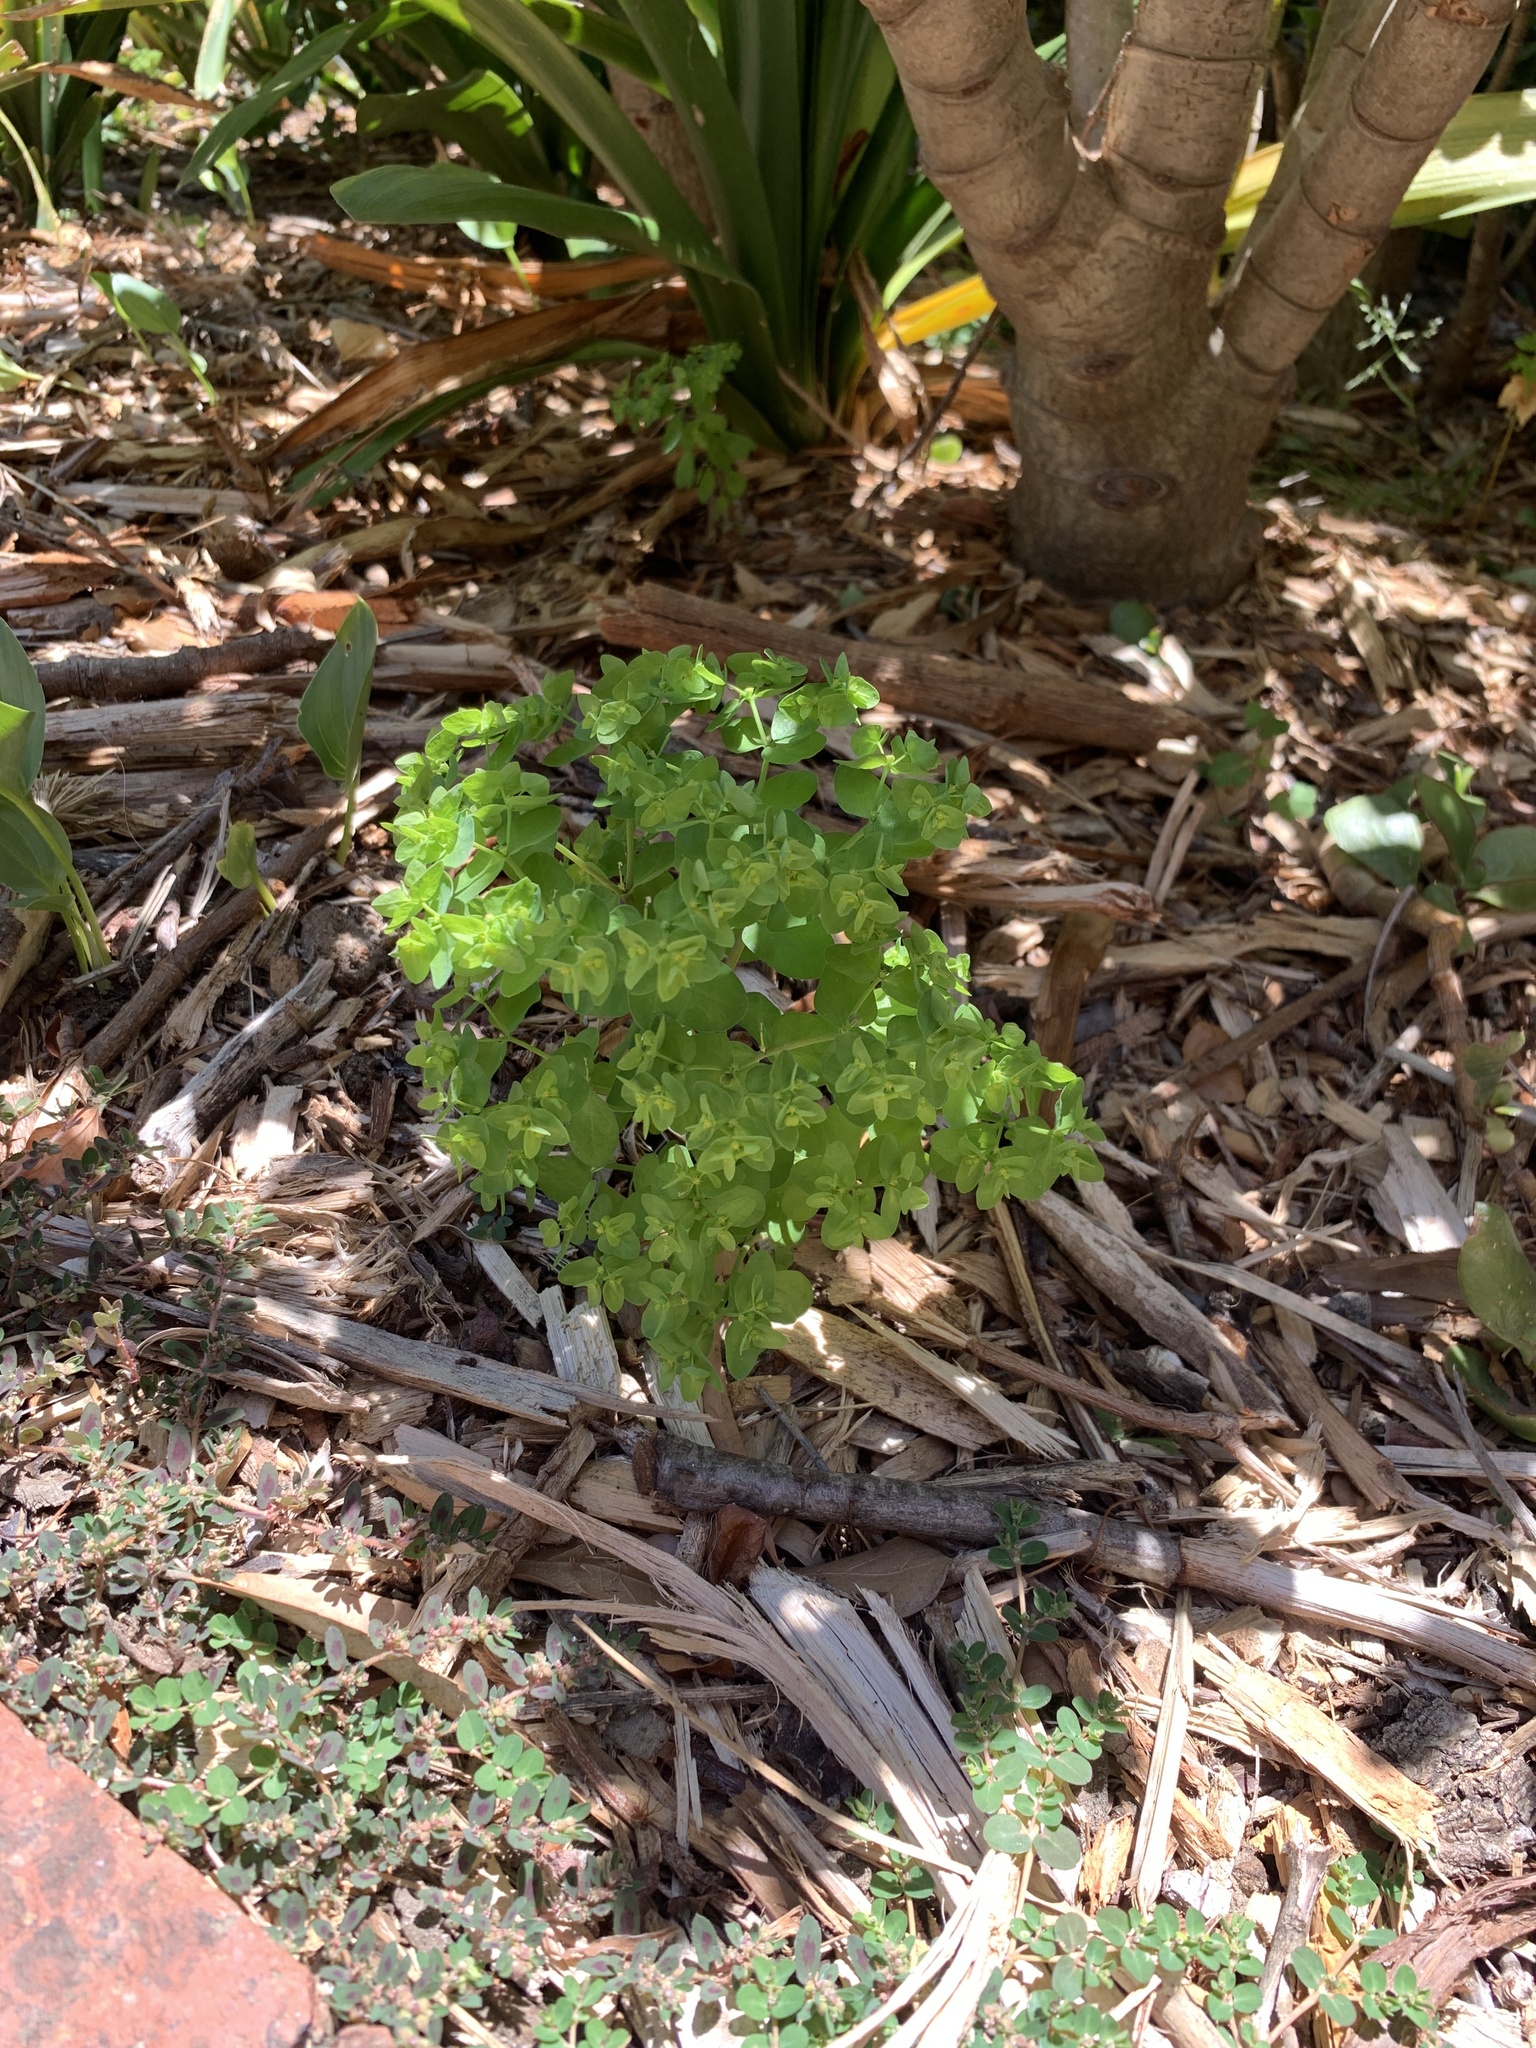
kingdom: Plantae
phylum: Tracheophyta
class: Magnoliopsida
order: Malpighiales
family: Euphorbiaceae
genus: Euphorbia
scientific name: Euphorbia peplus
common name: Petty spurge
